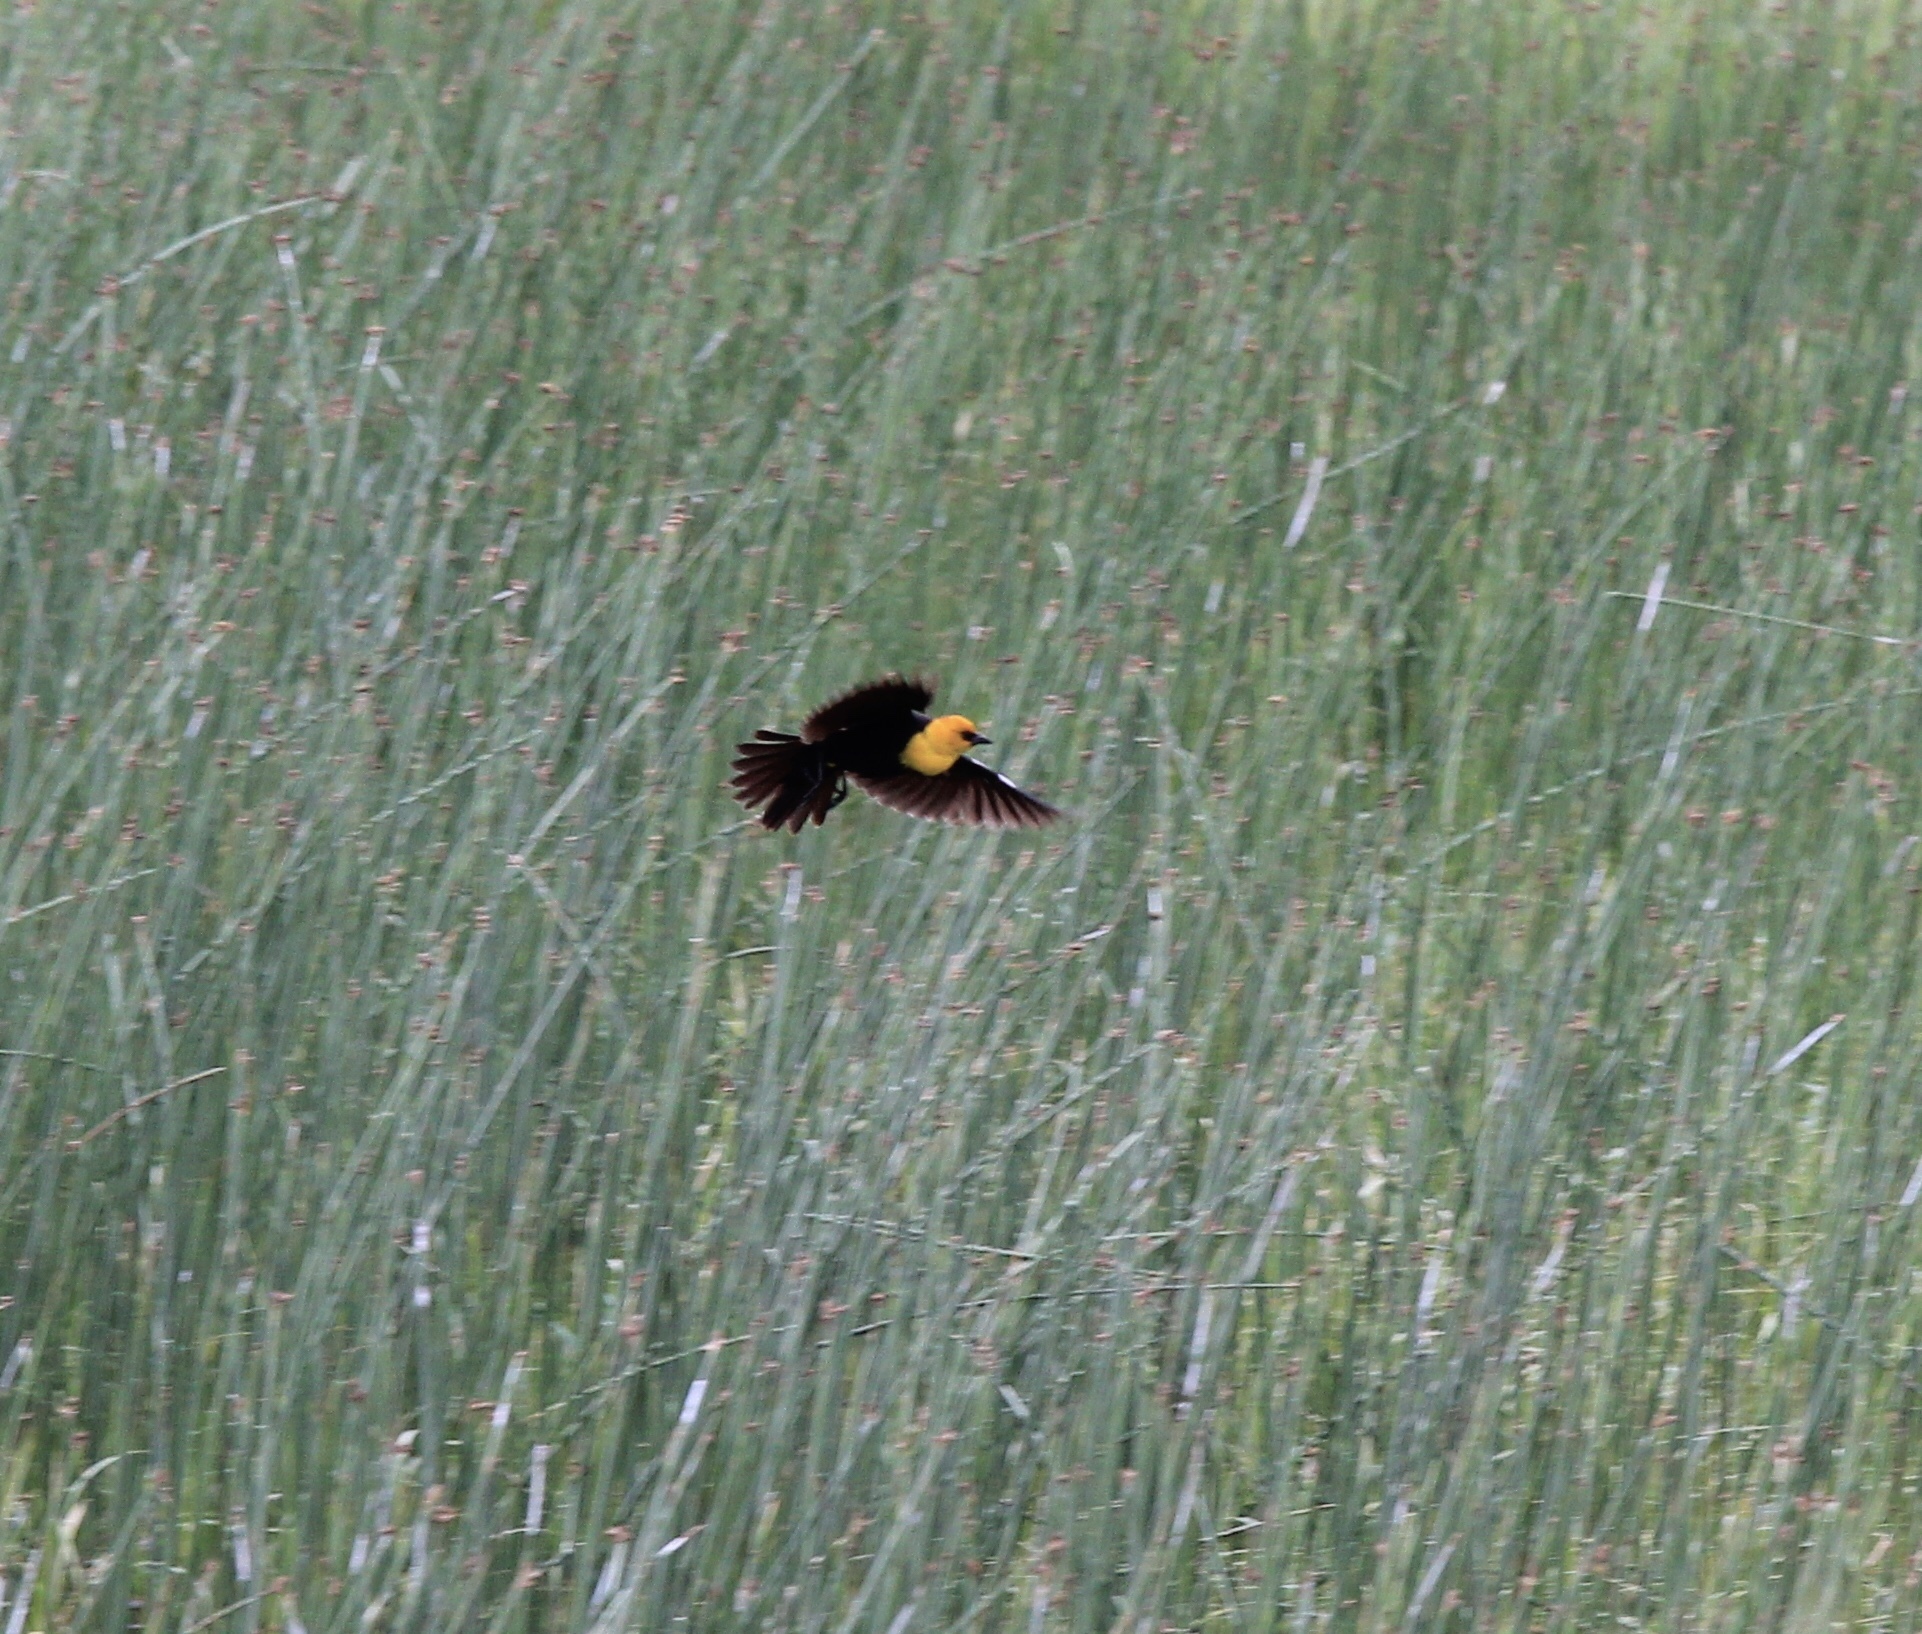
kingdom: Animalia
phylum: Chordata
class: Aves
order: Passeriformes
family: Icteridae
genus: Xanthocephalus
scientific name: Xanthocephalus xanthocephalus
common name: Yellow-headed blackbird
